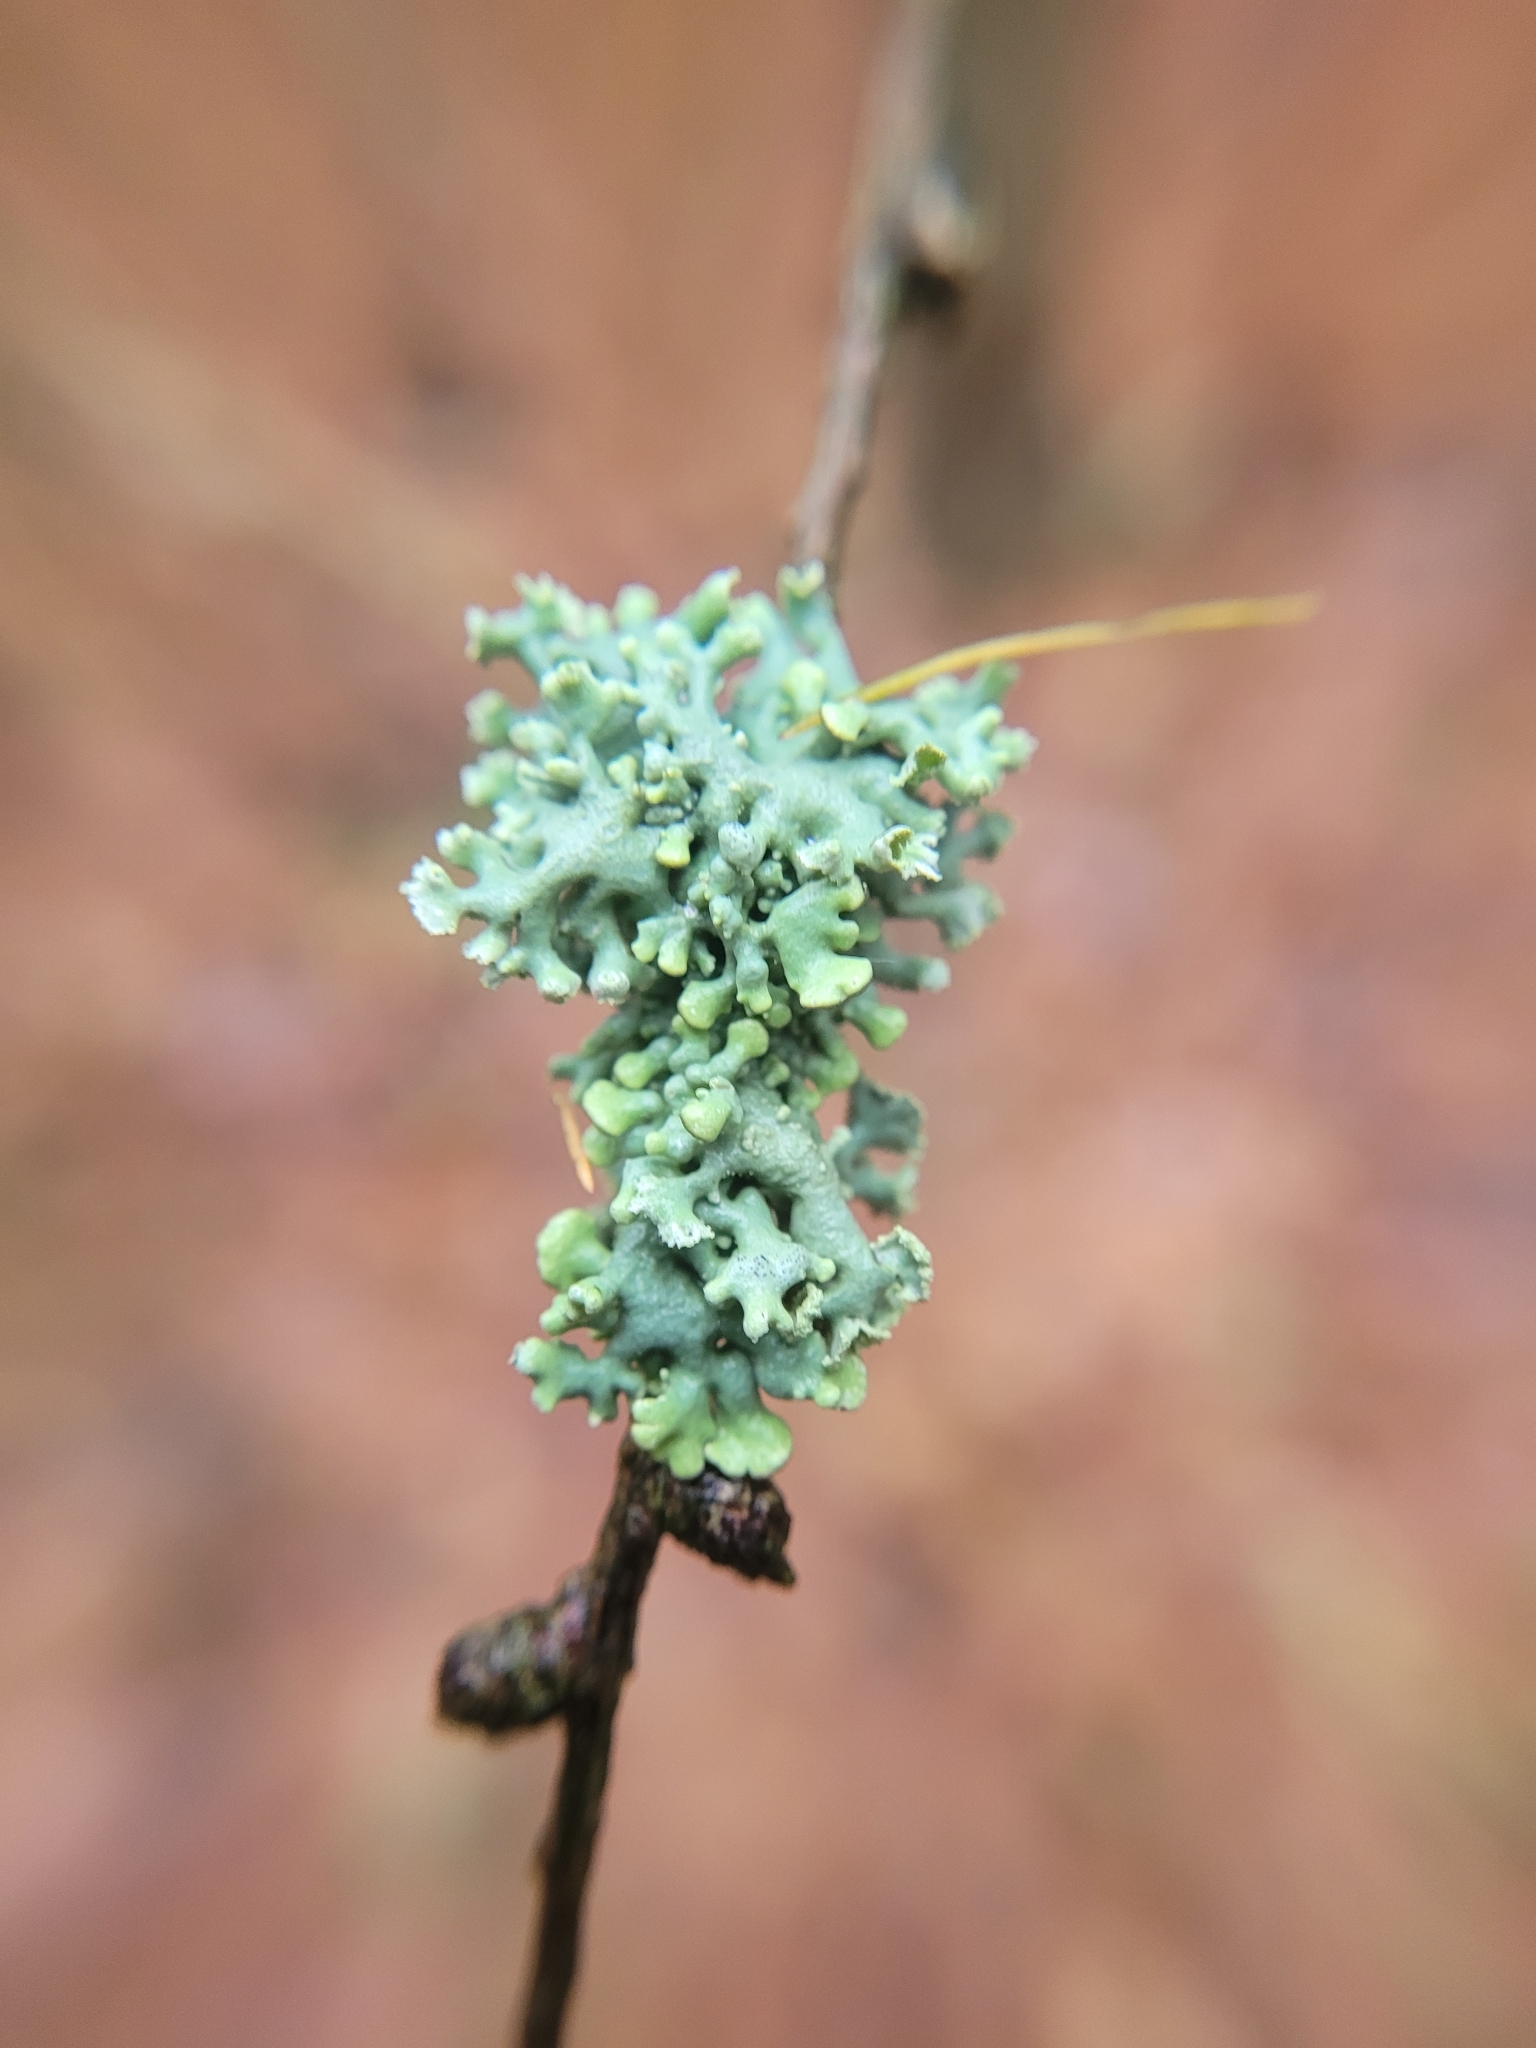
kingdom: Fungi
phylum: Ascomycota
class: Lecanoromycetes
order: Lecanorales
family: Parmeliaceae
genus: Hypogymnia
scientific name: Hypogymnia physodes
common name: Dark crottle
